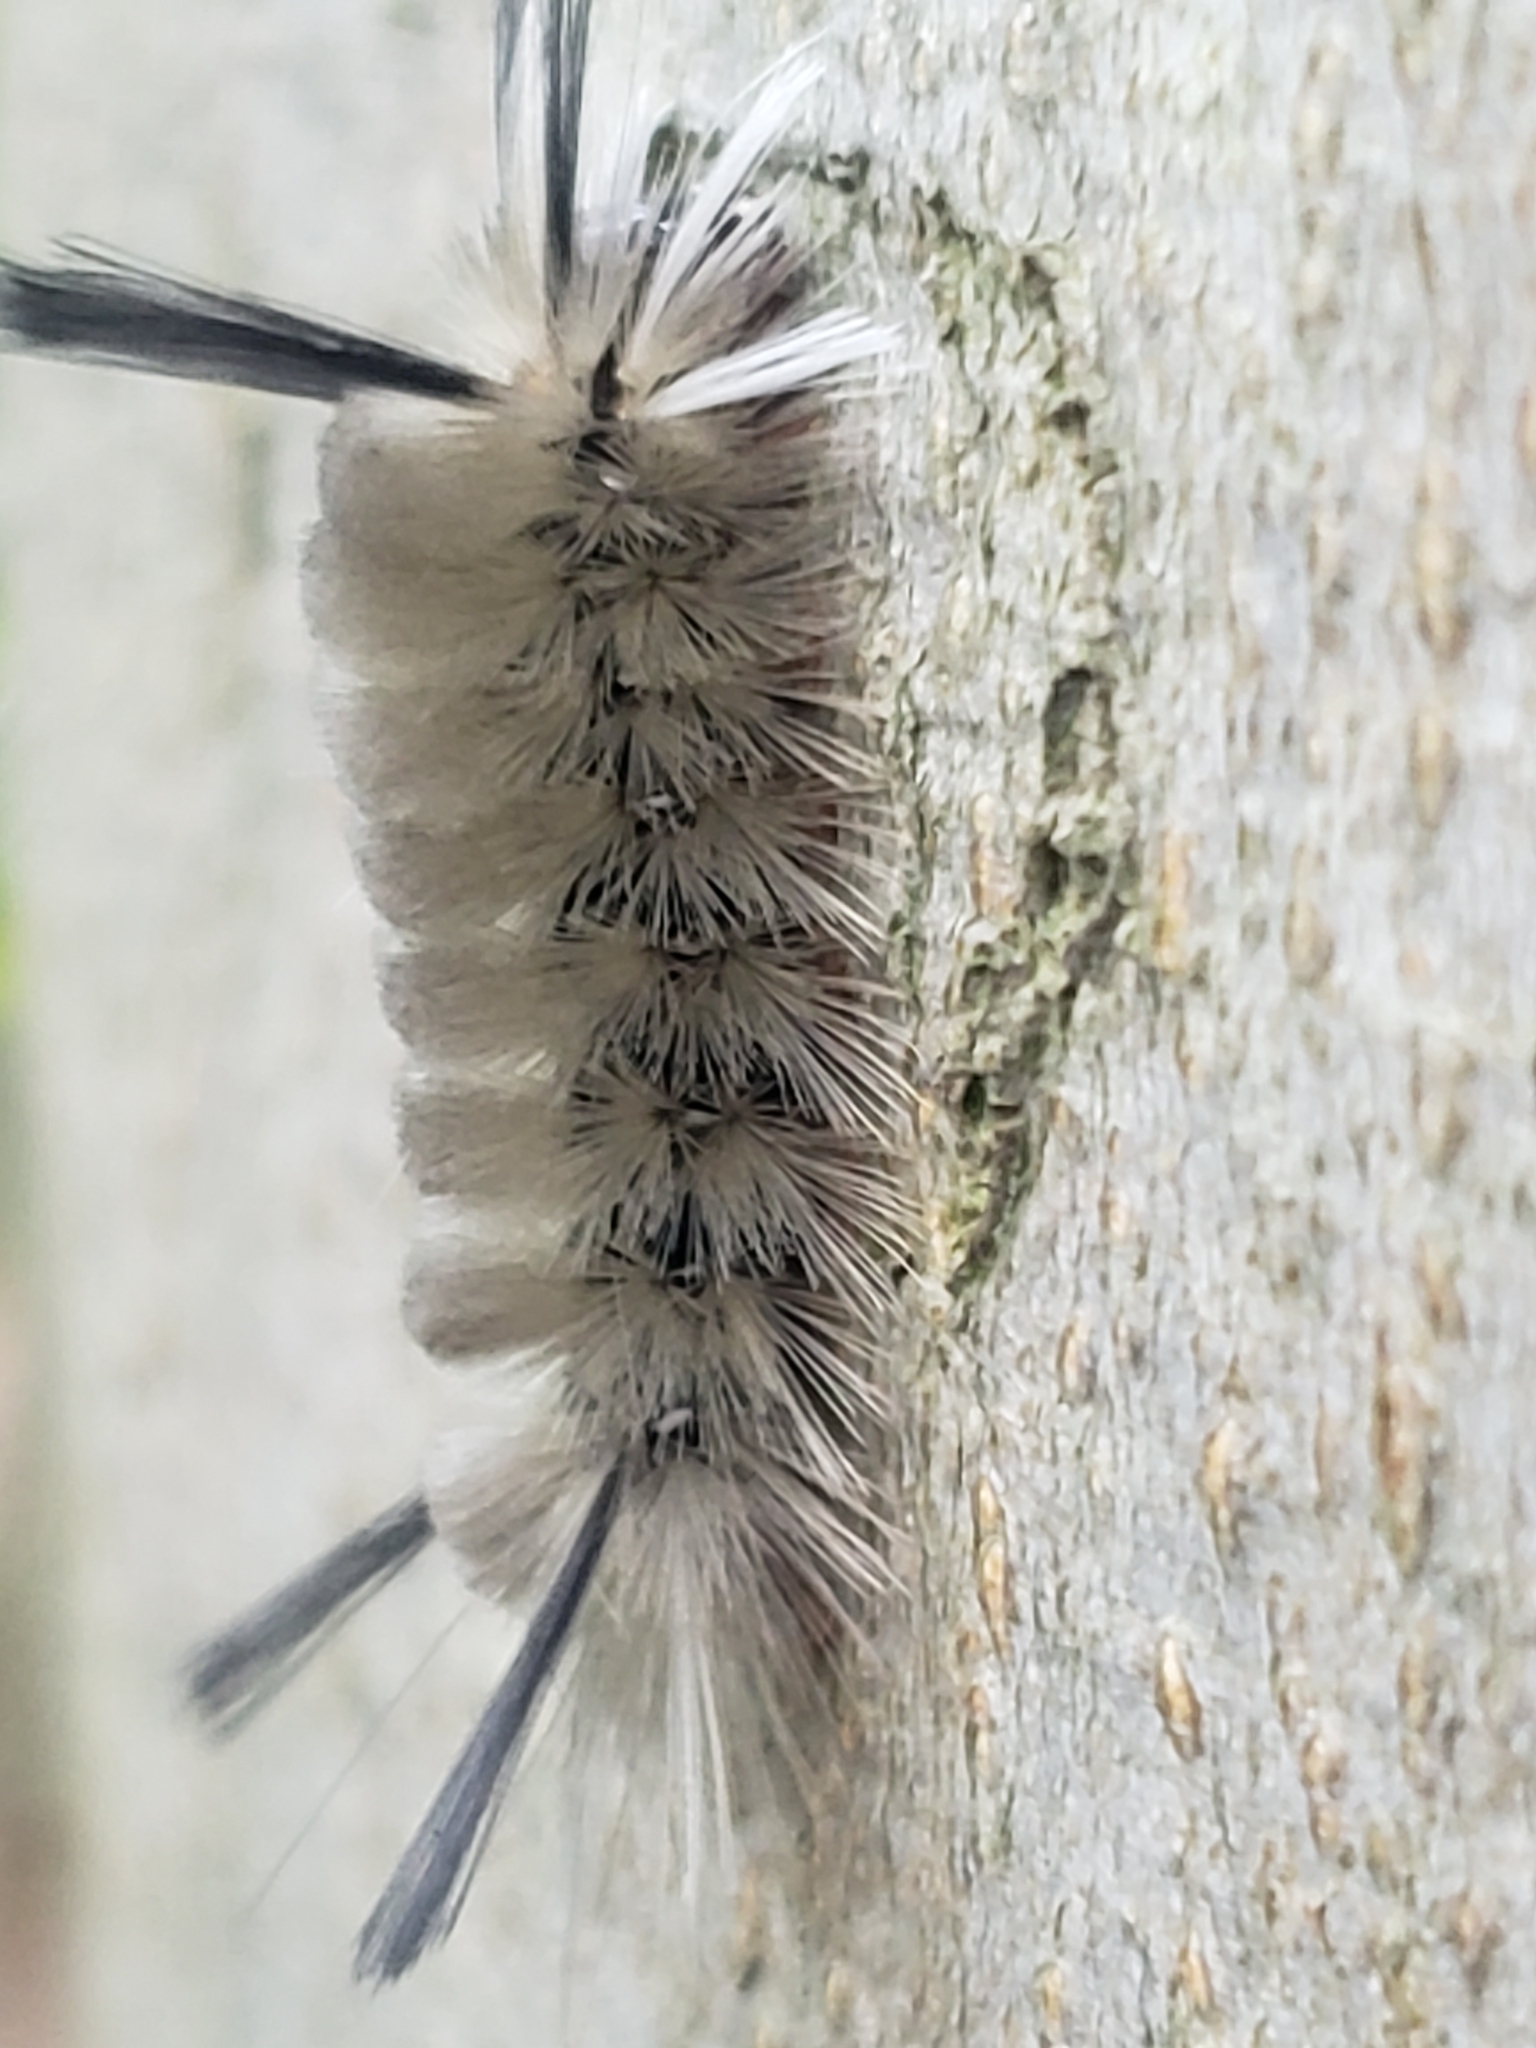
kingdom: Animalia
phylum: Arthropoda
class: Insecta
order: Lepidoptera
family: Erebidae
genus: Halysidota
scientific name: Halysidota tessellaris
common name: Banded tussock moth
